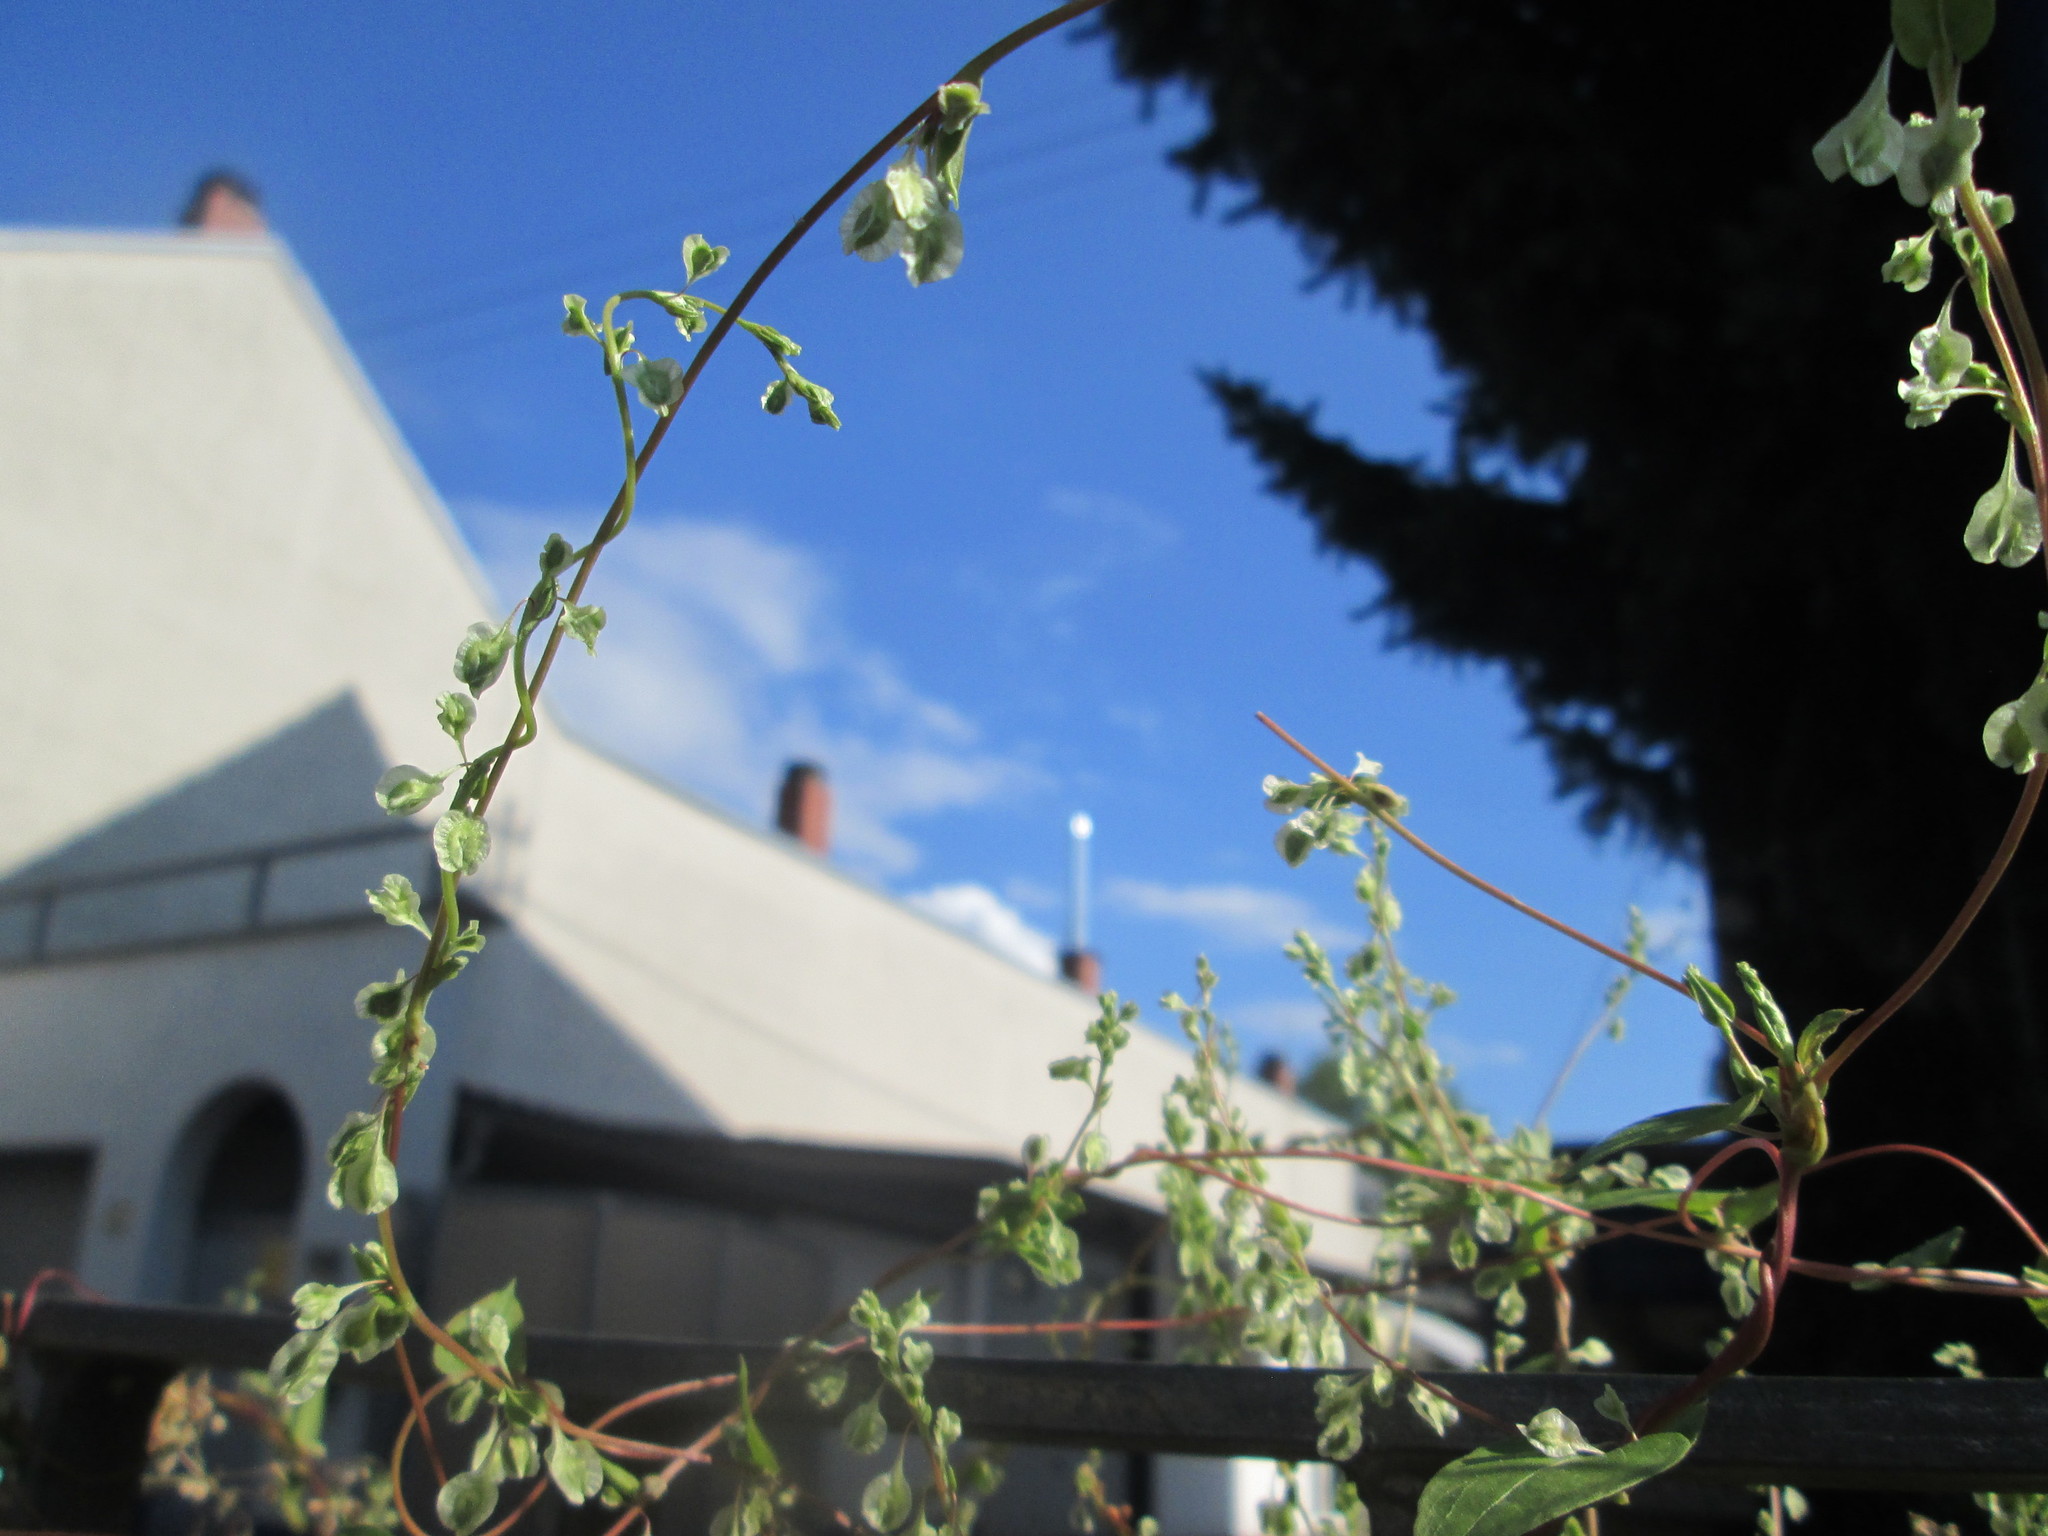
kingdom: Plantae
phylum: Tracheophyta
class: Magnoliopsida
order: Caryophyllales
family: Polygonaceae
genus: Fallopia
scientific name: Fallopia dumetorum
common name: Copse-bindweed
